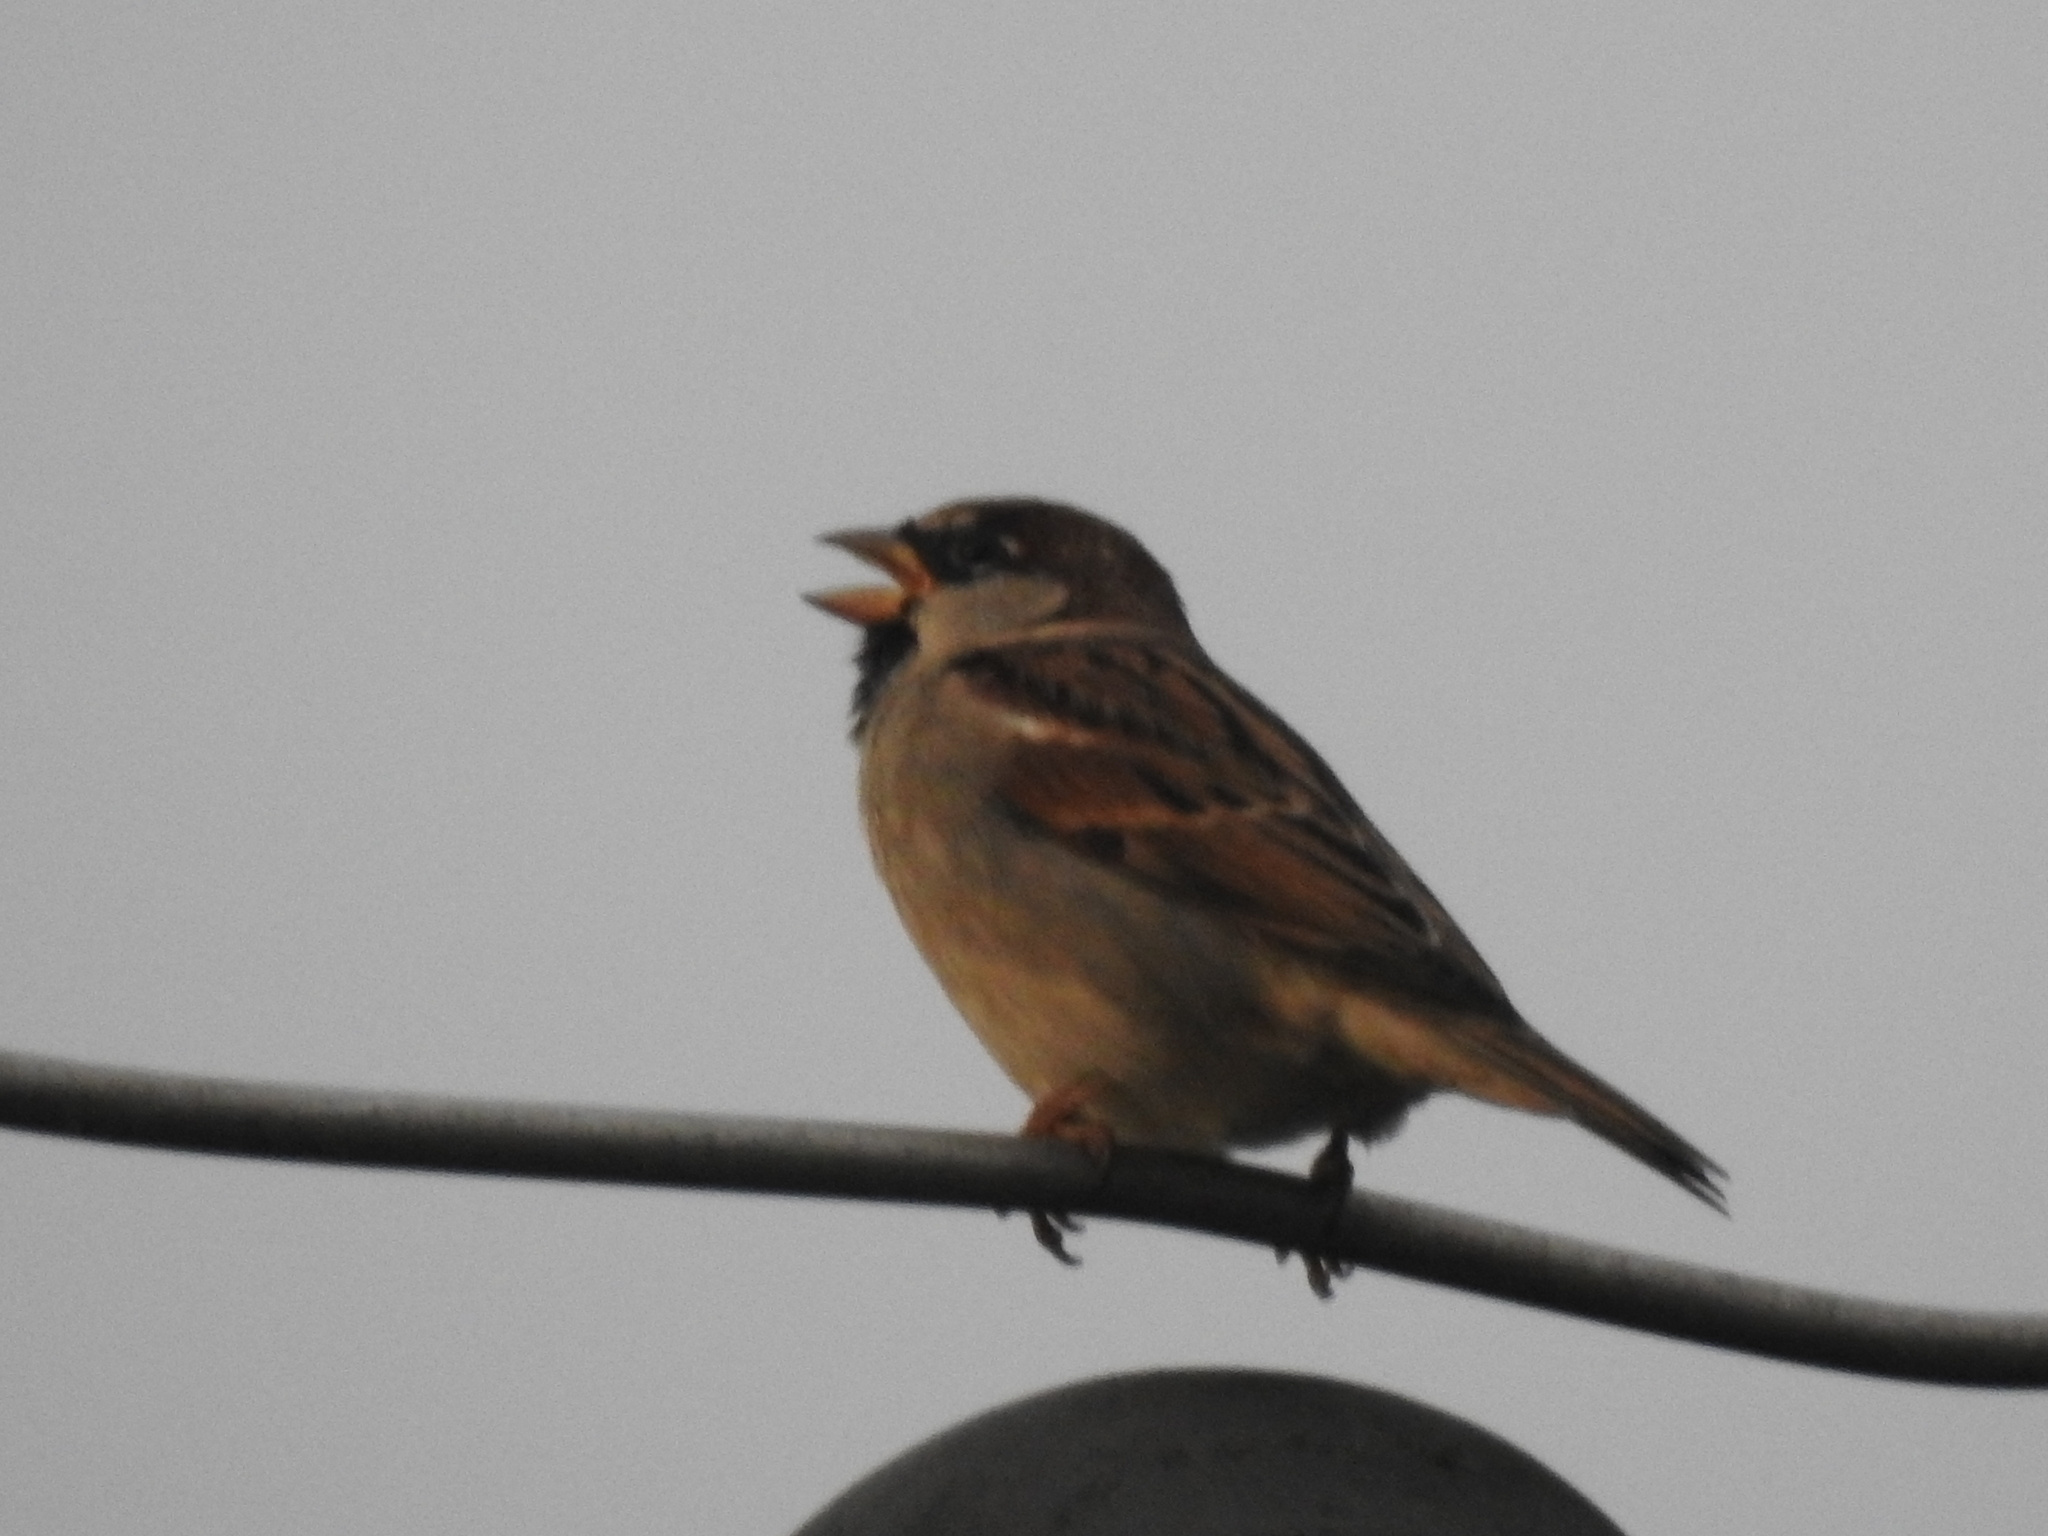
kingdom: Animalia
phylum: Chordata
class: Aves
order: Passeriformes
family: Passeridae
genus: Passer
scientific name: Passer domesticus
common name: House sparrow
